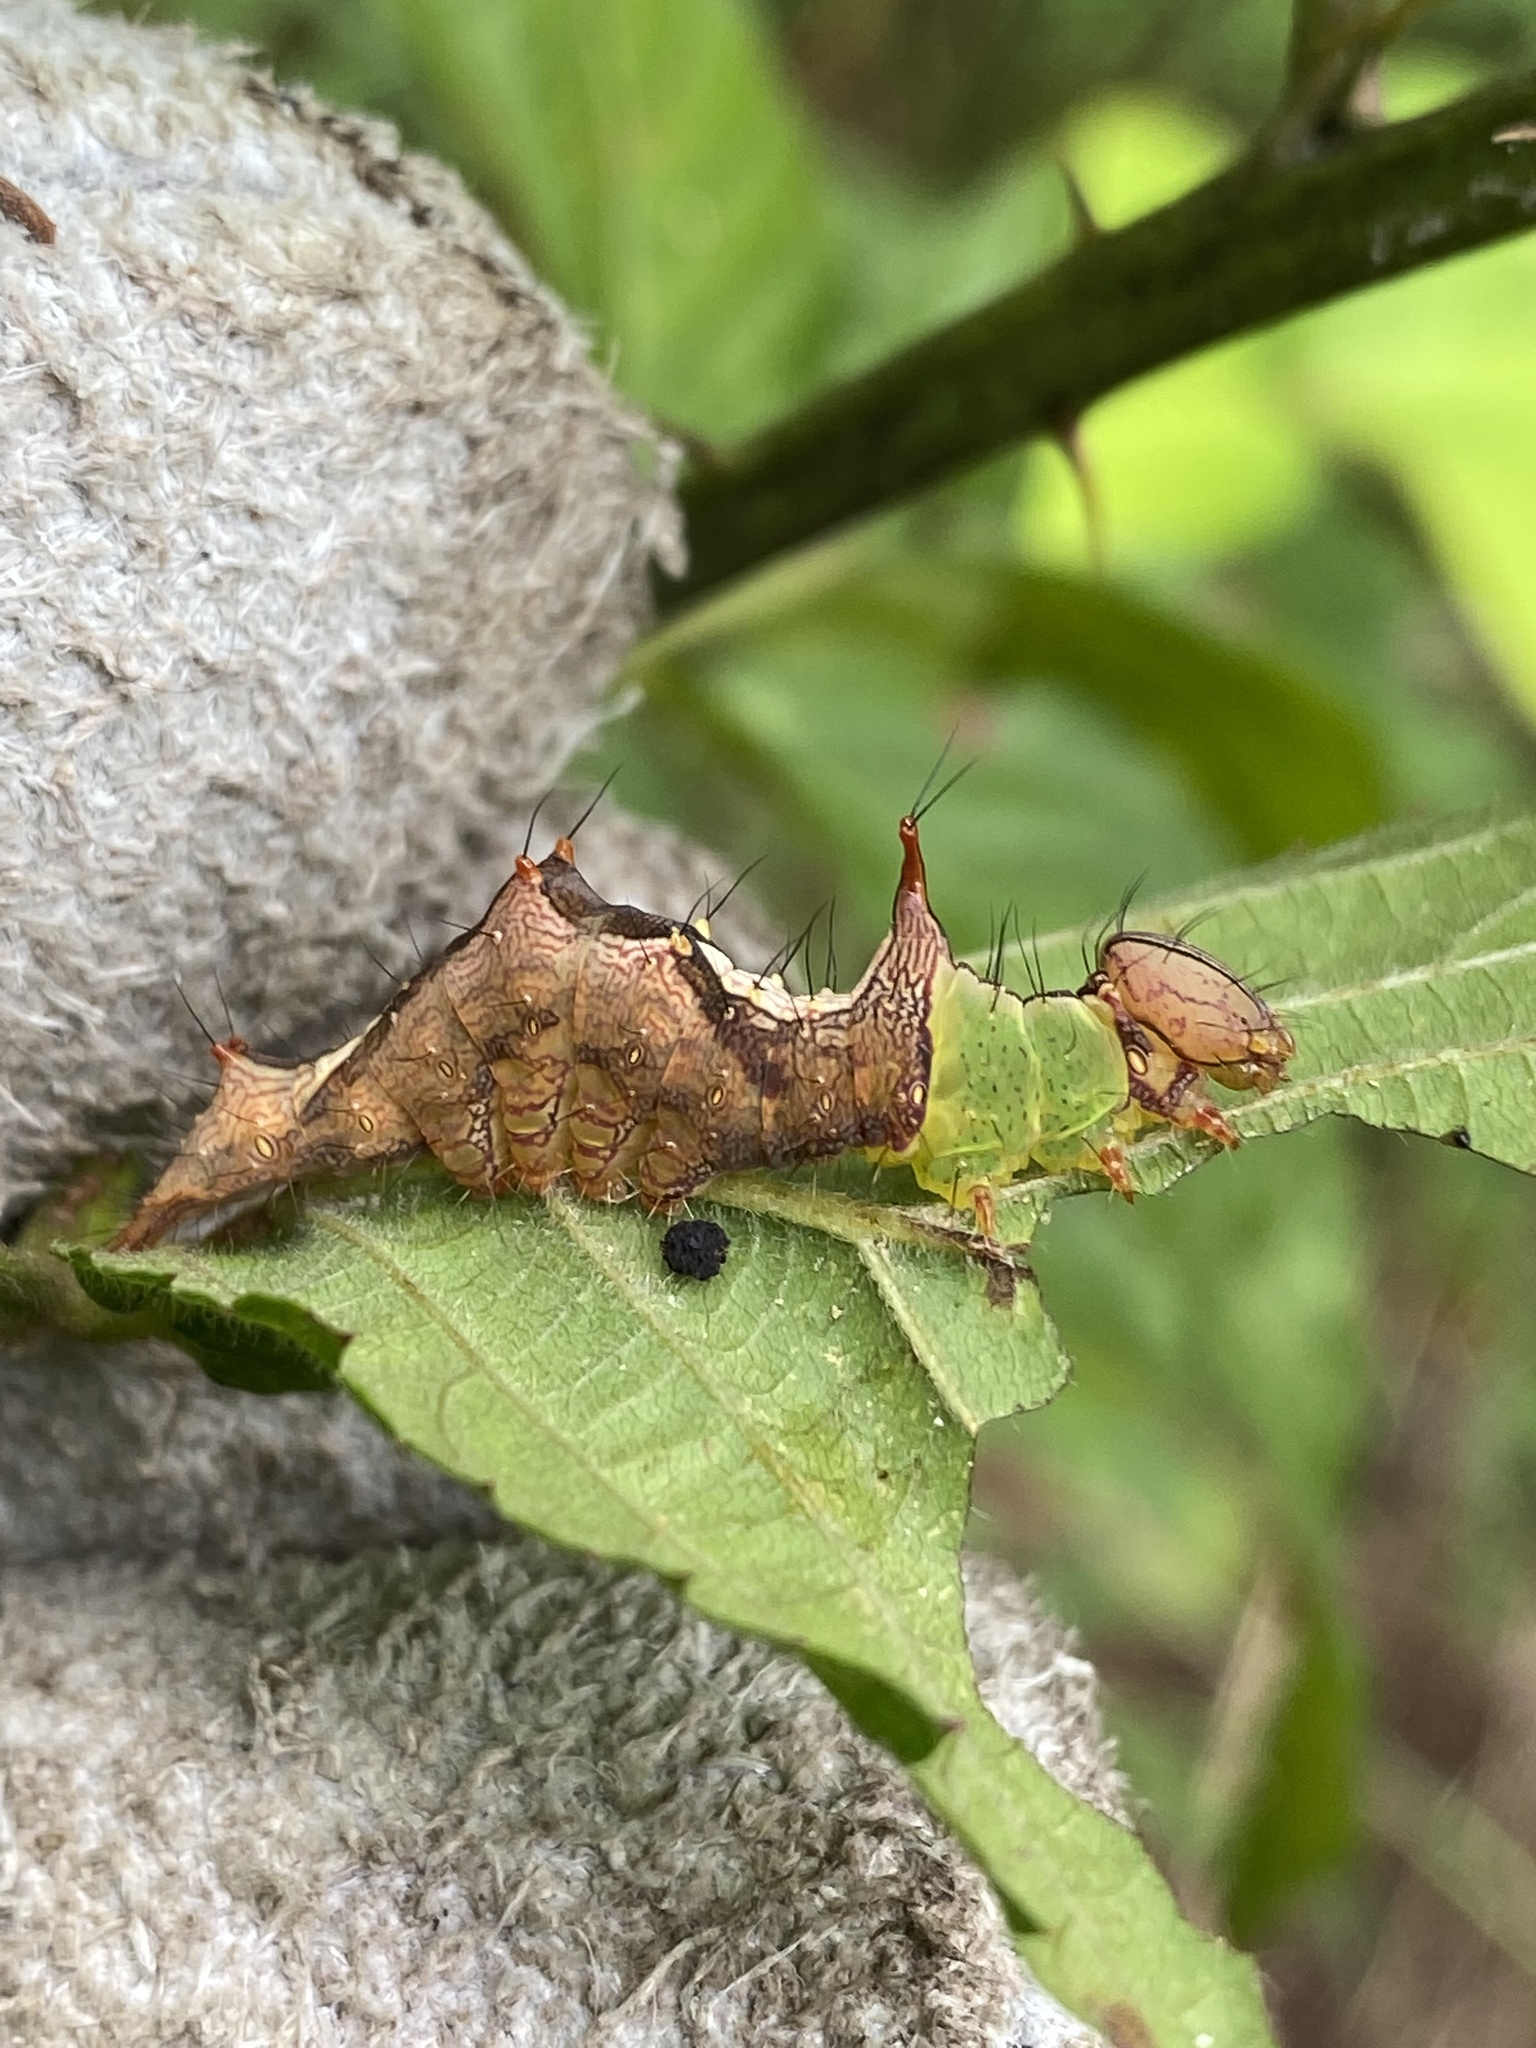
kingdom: Animalia
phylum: Arthropoda
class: Insecta
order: Lepidoptera
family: Notodontidae
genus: Schizura
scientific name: Schizura ipomaeae
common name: Morning-glory prominent
